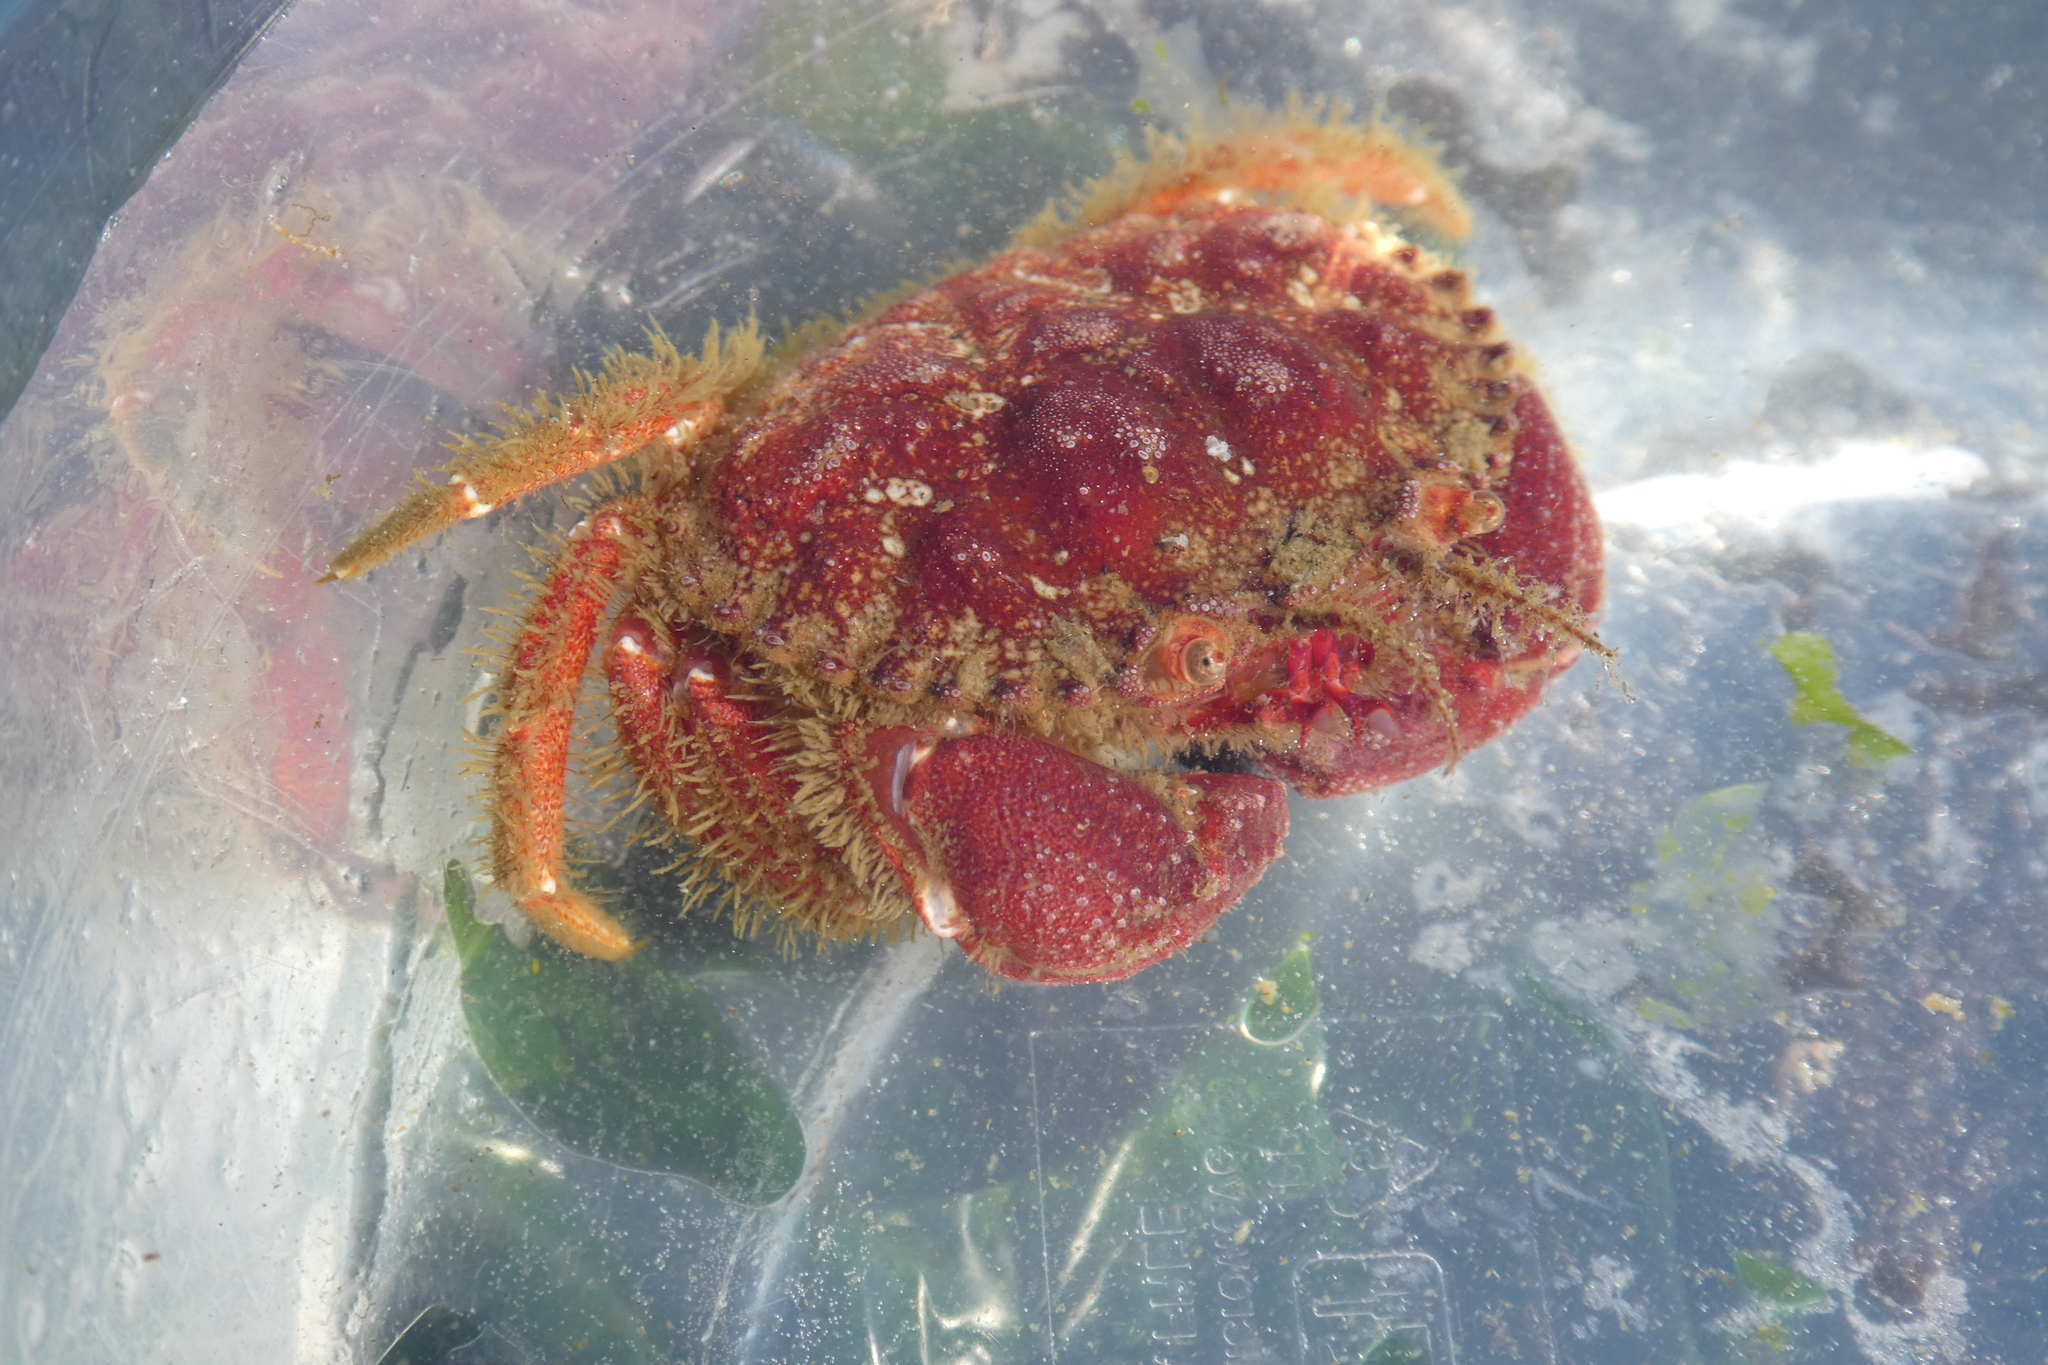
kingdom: Animalia
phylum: Arthropoda
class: Malacostraca
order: Decapoda
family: Cancridae
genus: Glebocarcinus
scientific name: Glebocarcinus oregonensis
